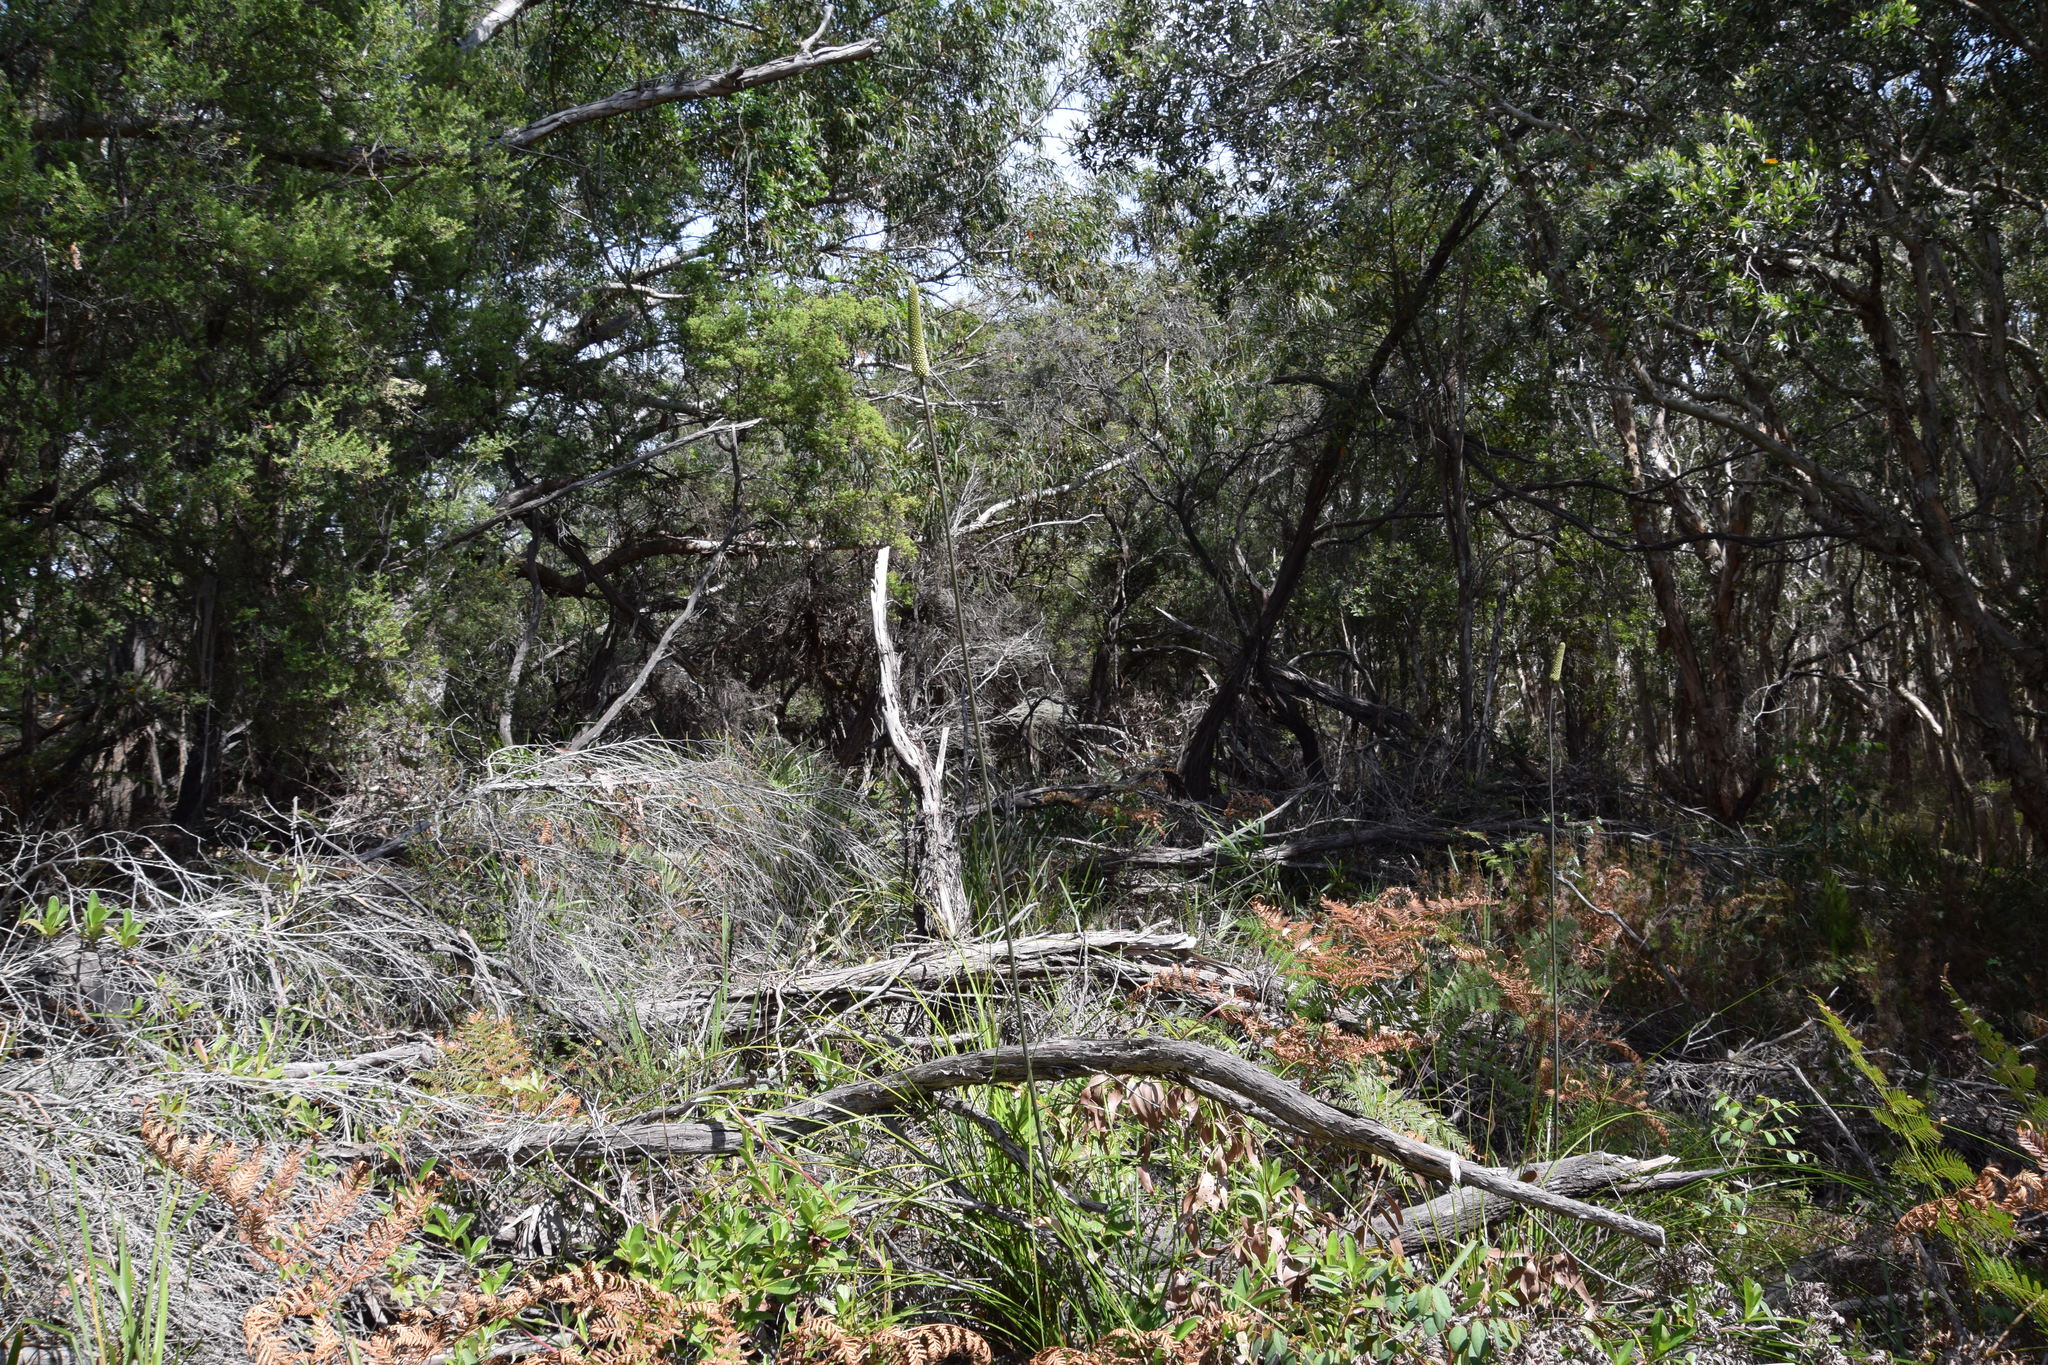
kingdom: Plantae
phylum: Tracheophyta
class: Liliopsida
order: Asparagales
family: Asphodelaceae
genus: Xanthorrhoea
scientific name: Xanthorrhoea macronema
